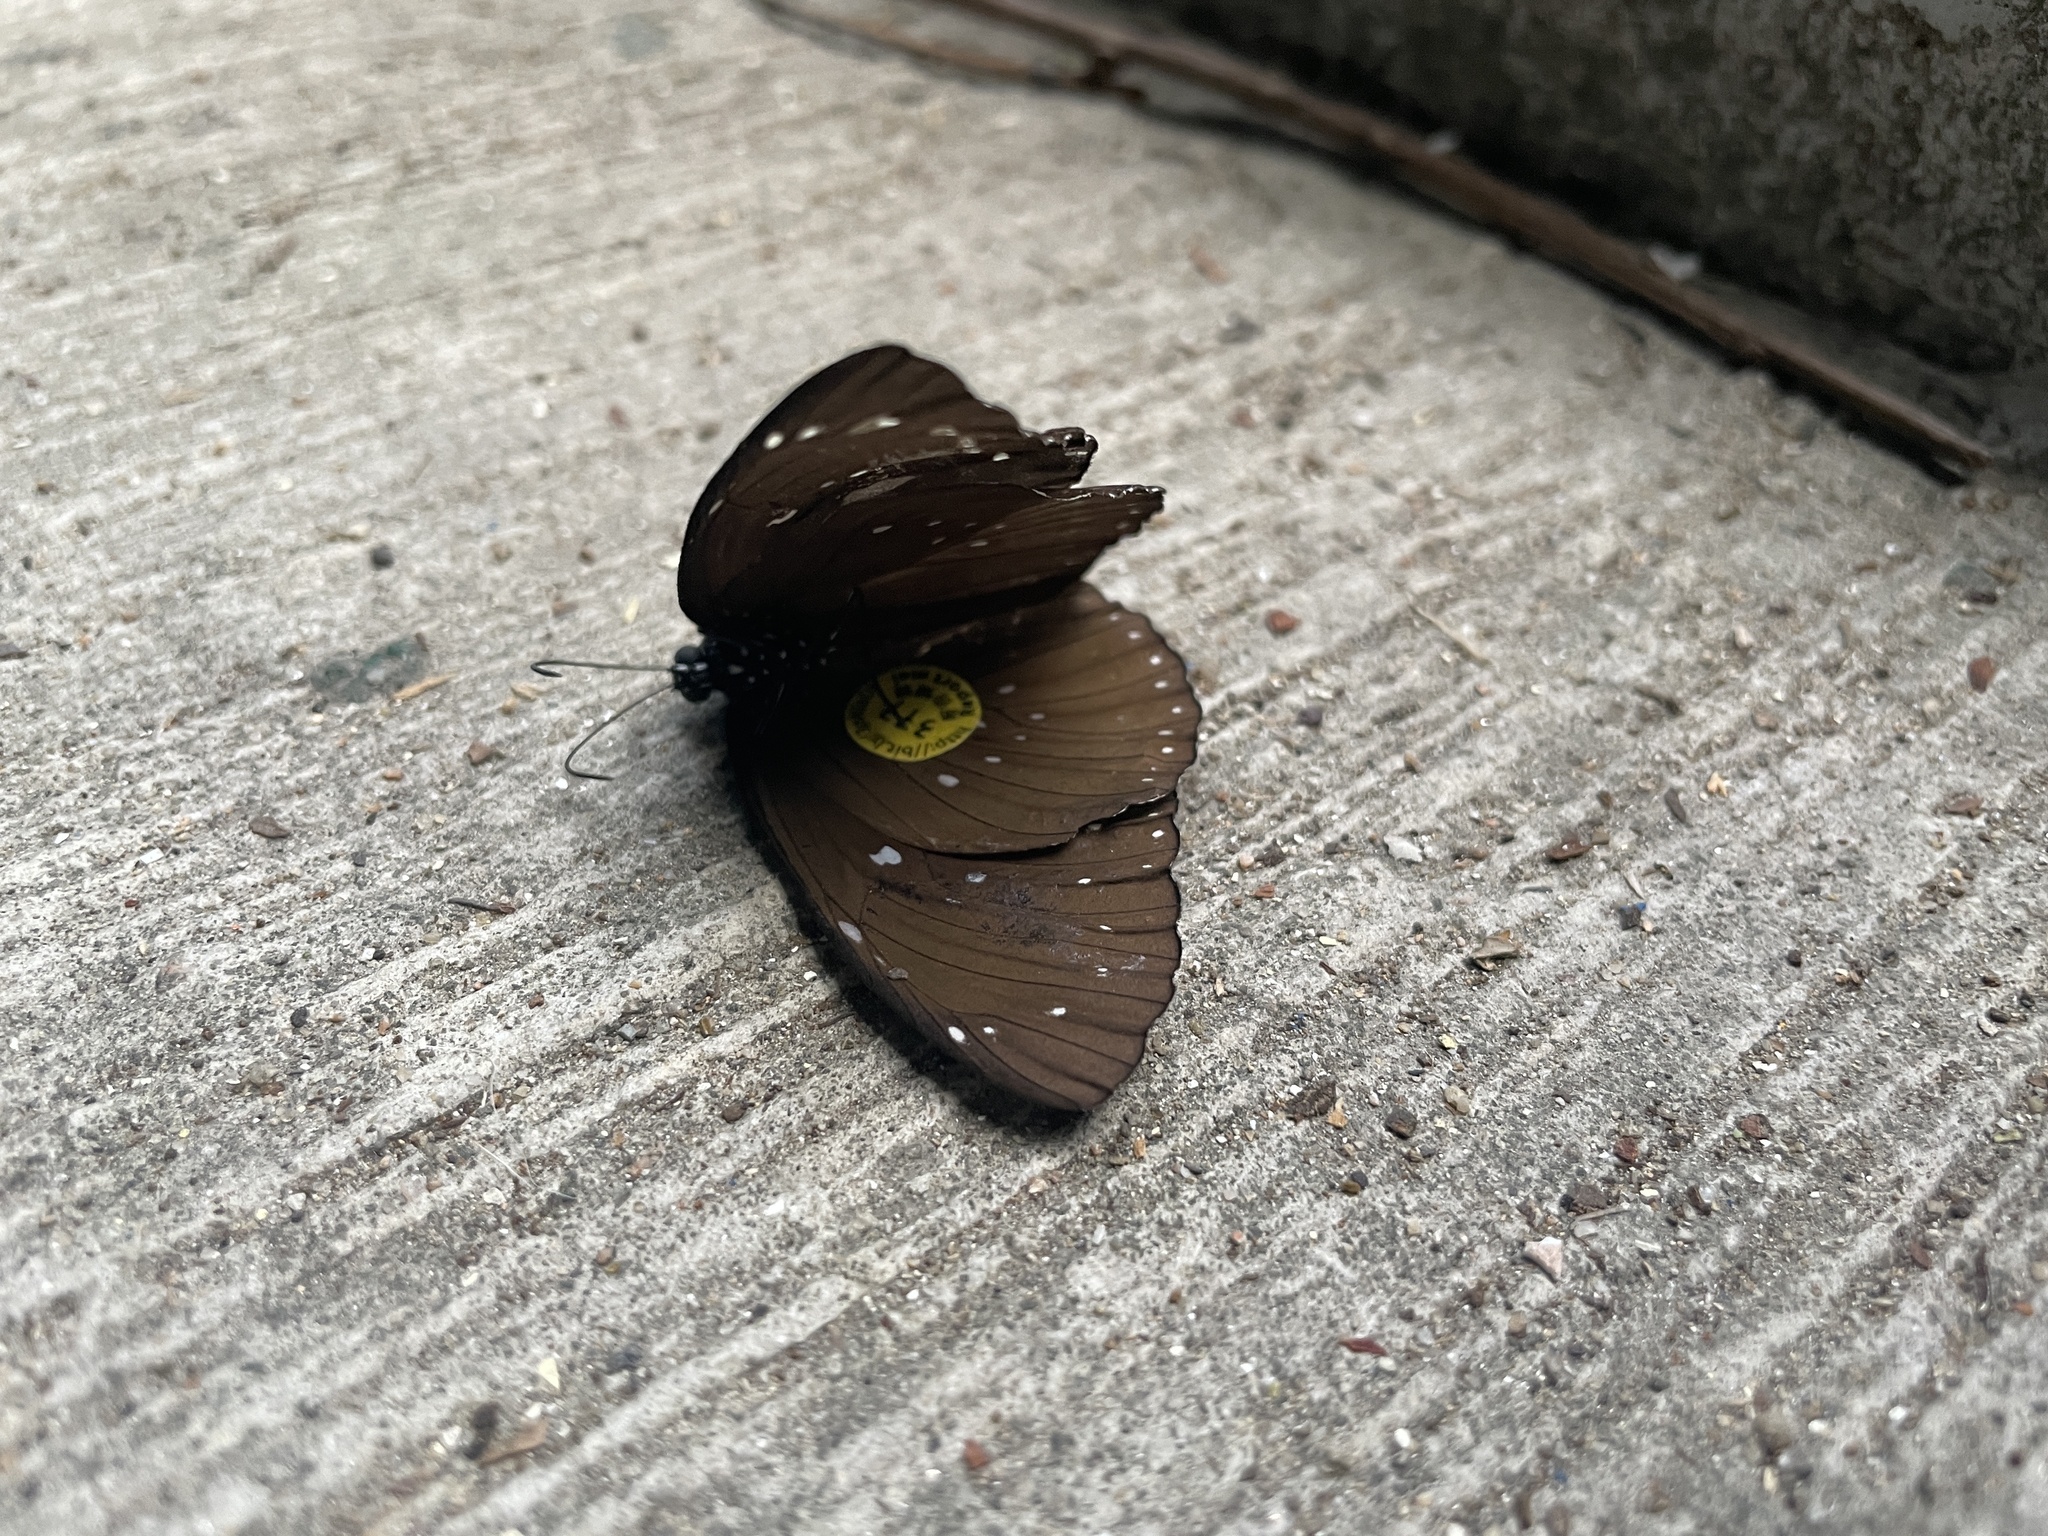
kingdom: Animalia
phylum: Arthropoda
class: Insecta
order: Lepidoptera
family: Nymphalidae
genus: Euploea
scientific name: Euploea core
